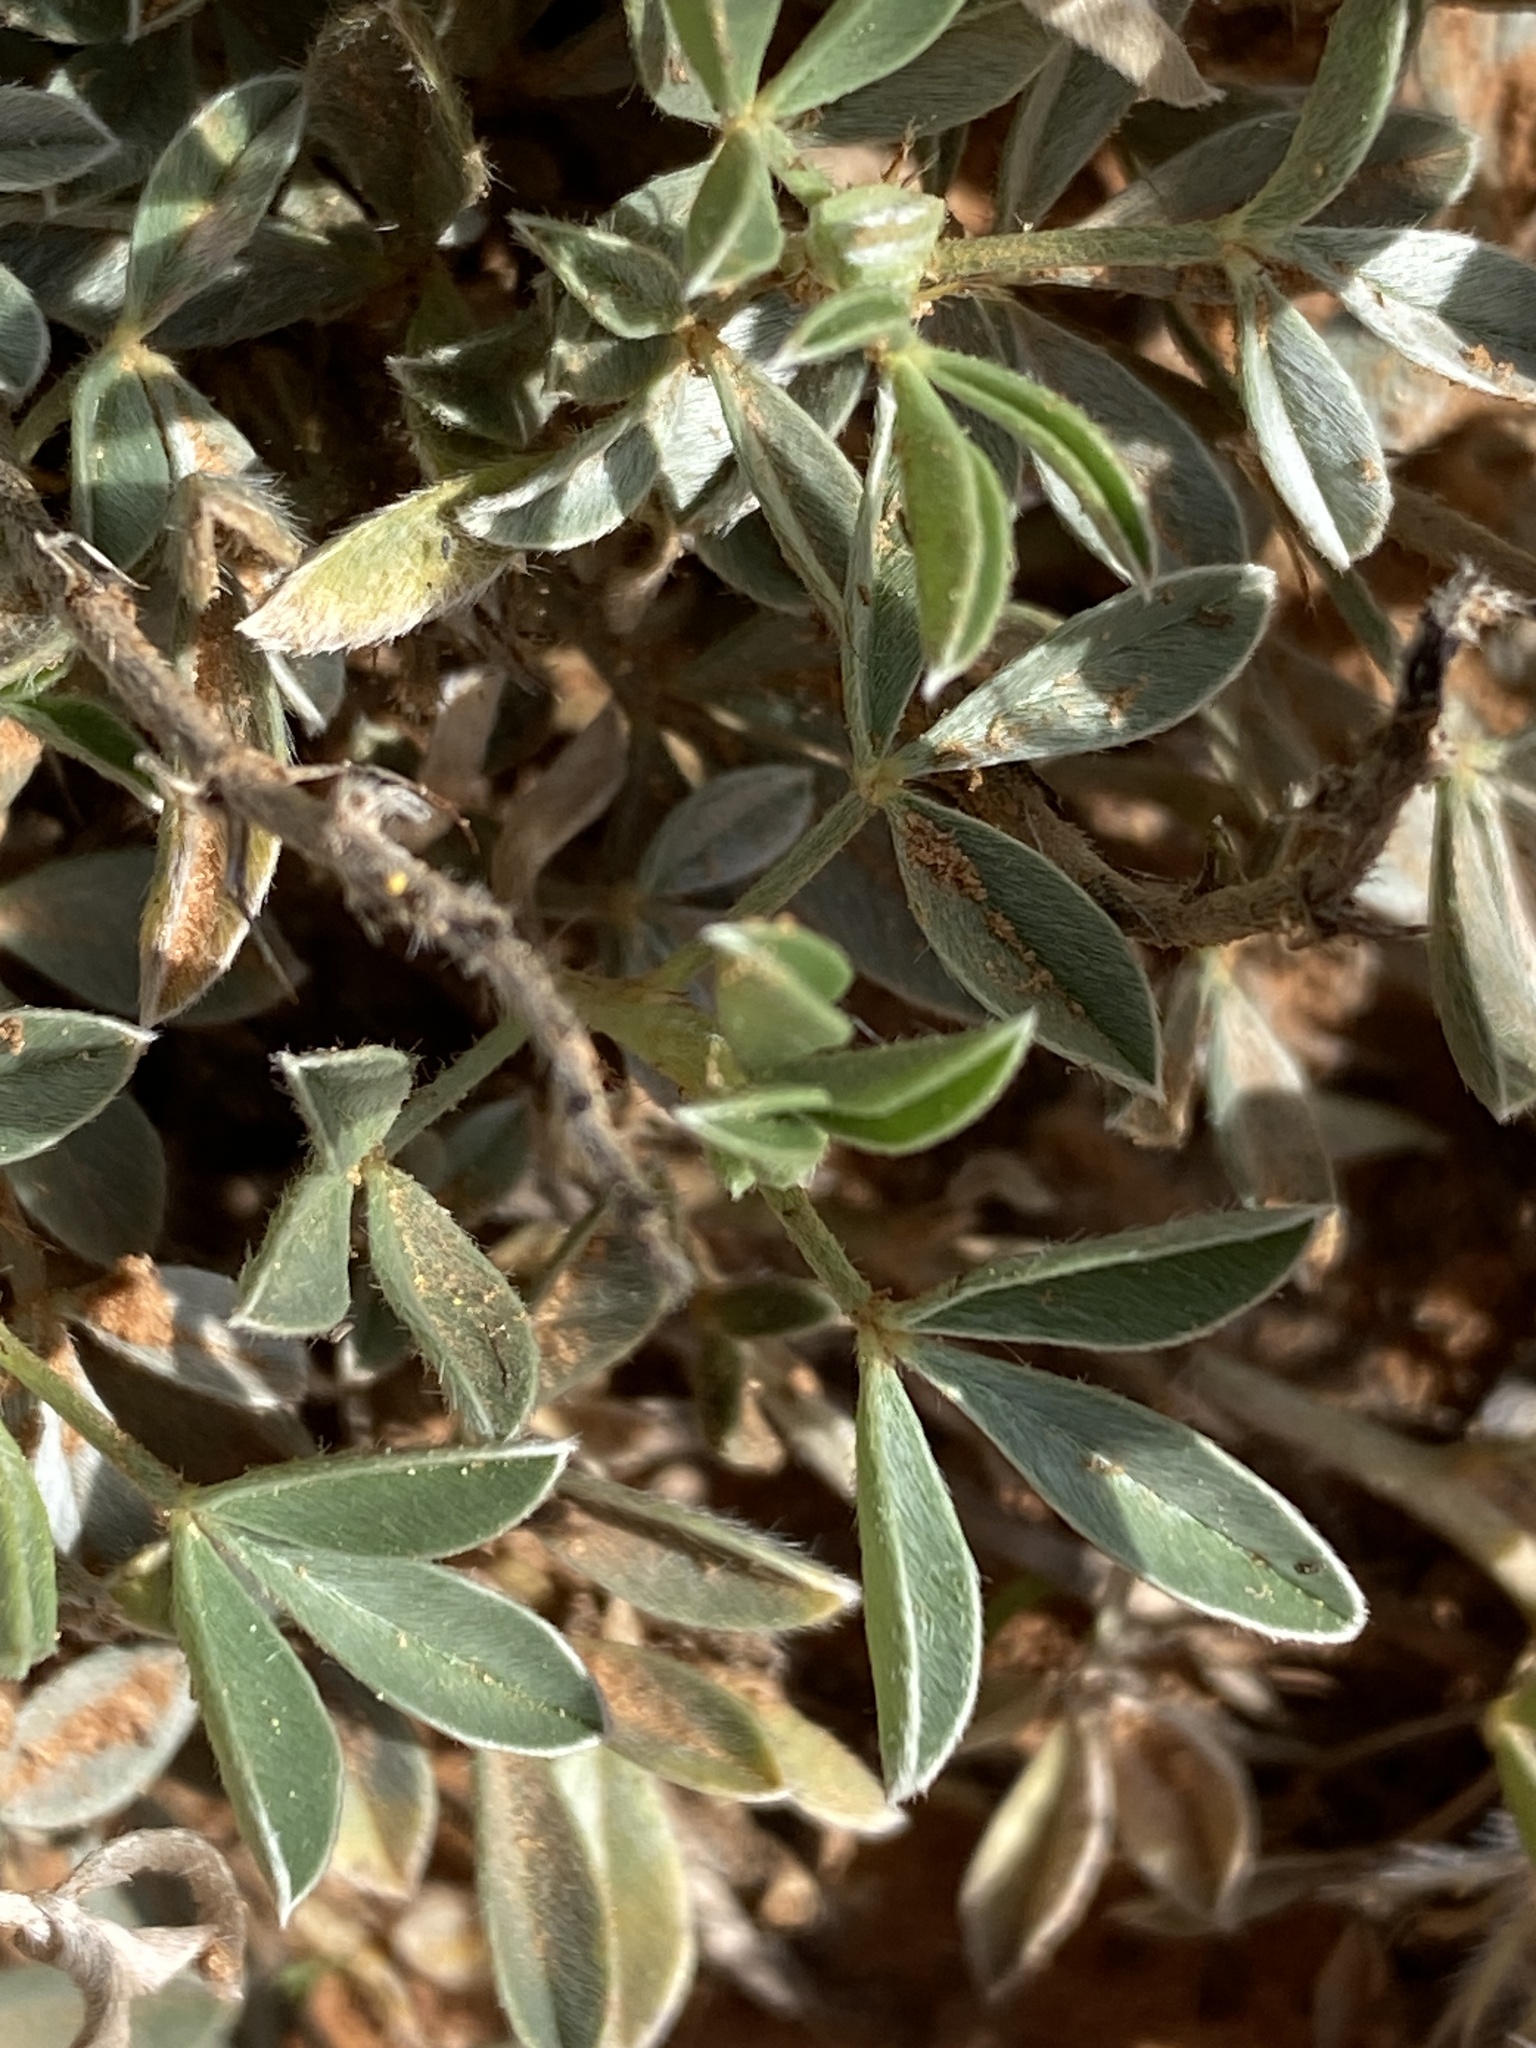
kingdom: Plantae
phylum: Tracheophyta
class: Magnoliopsida
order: Fabales
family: Fabaceae
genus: Dalea
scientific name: Dalea jamesii
